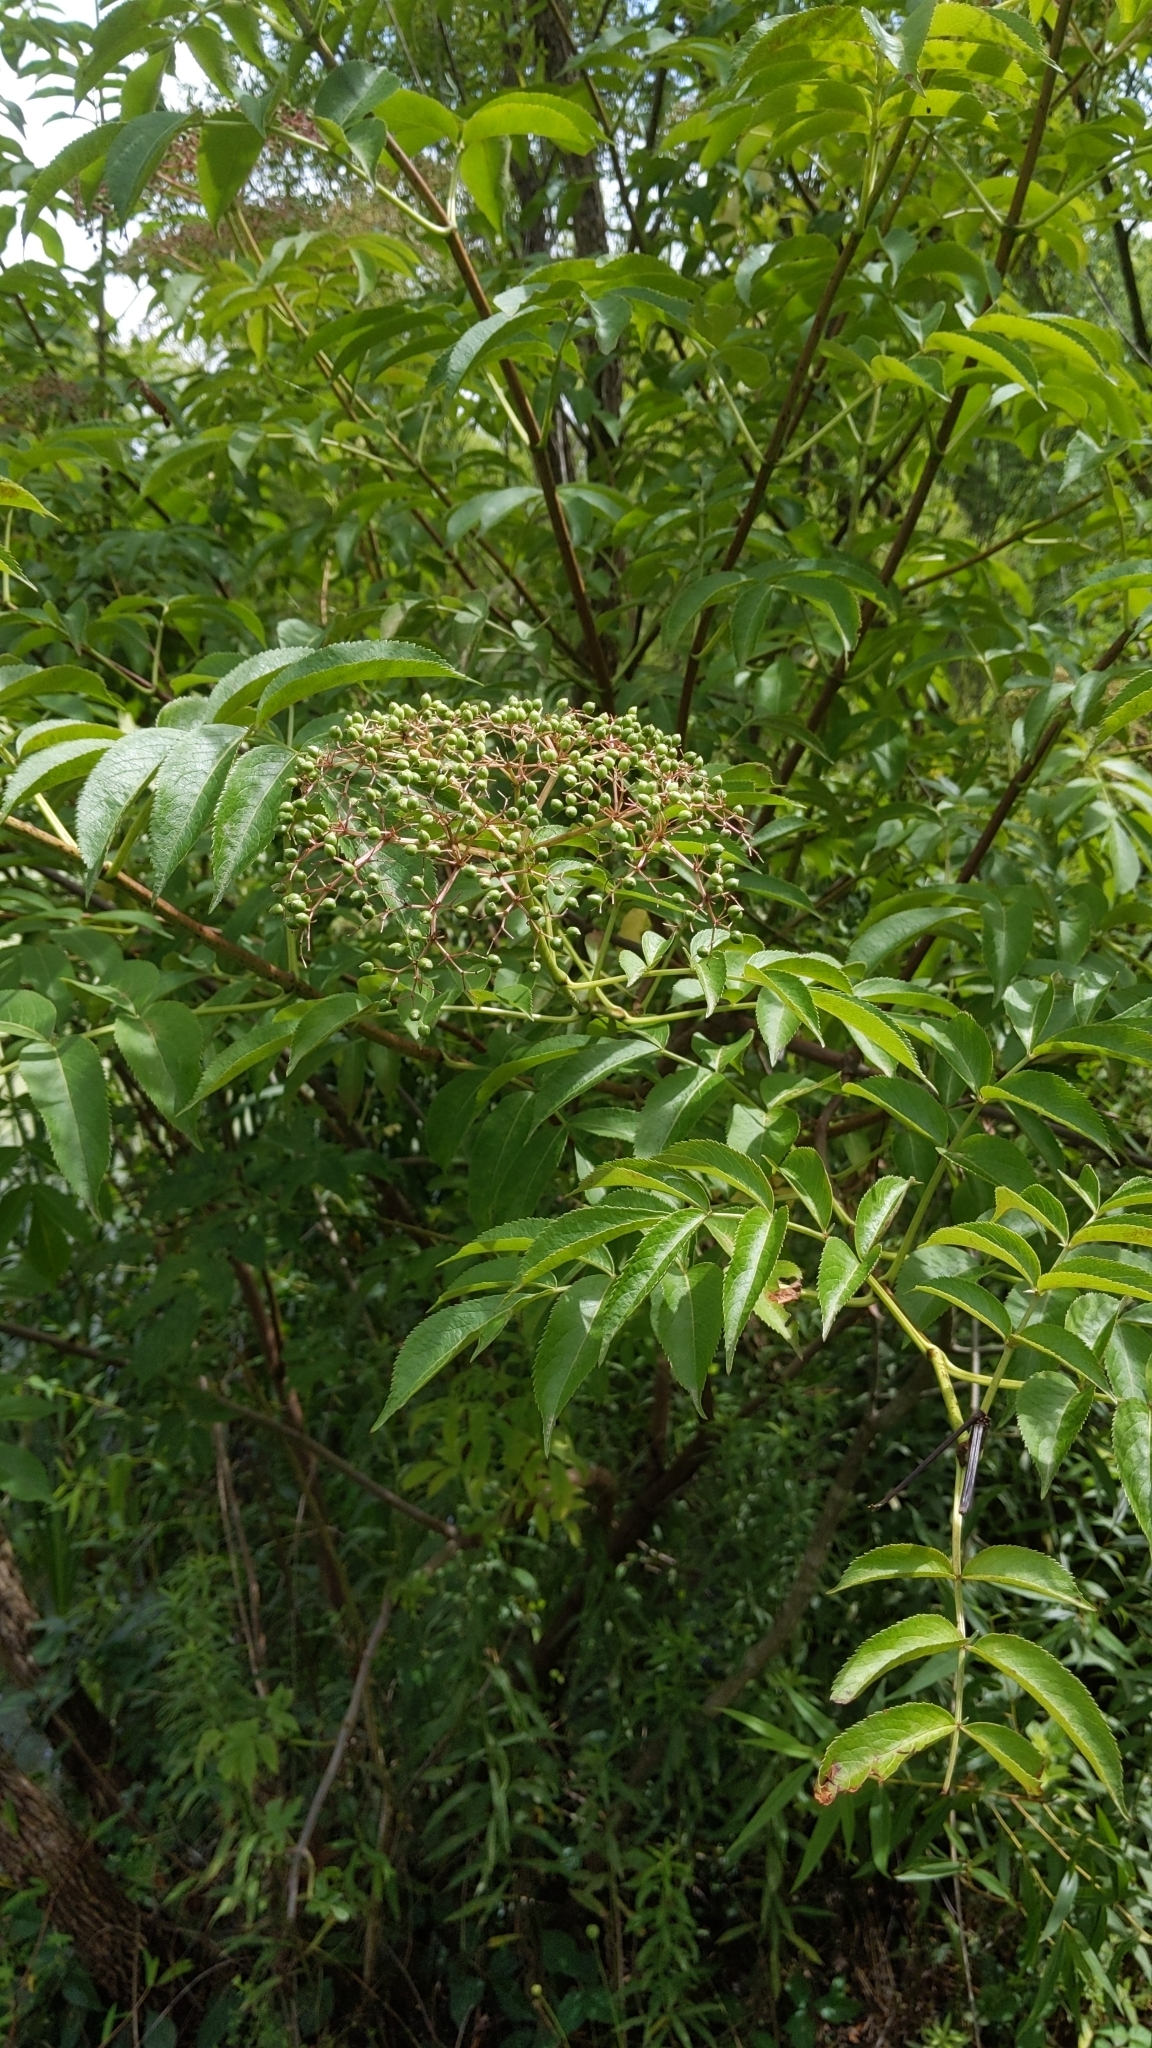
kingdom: Plantae
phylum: Tracheophyta
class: Magnoliopsida
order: Dipsacales
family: Viburnaceae
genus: Sambucus
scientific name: Sambucus canadensis
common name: American elder
